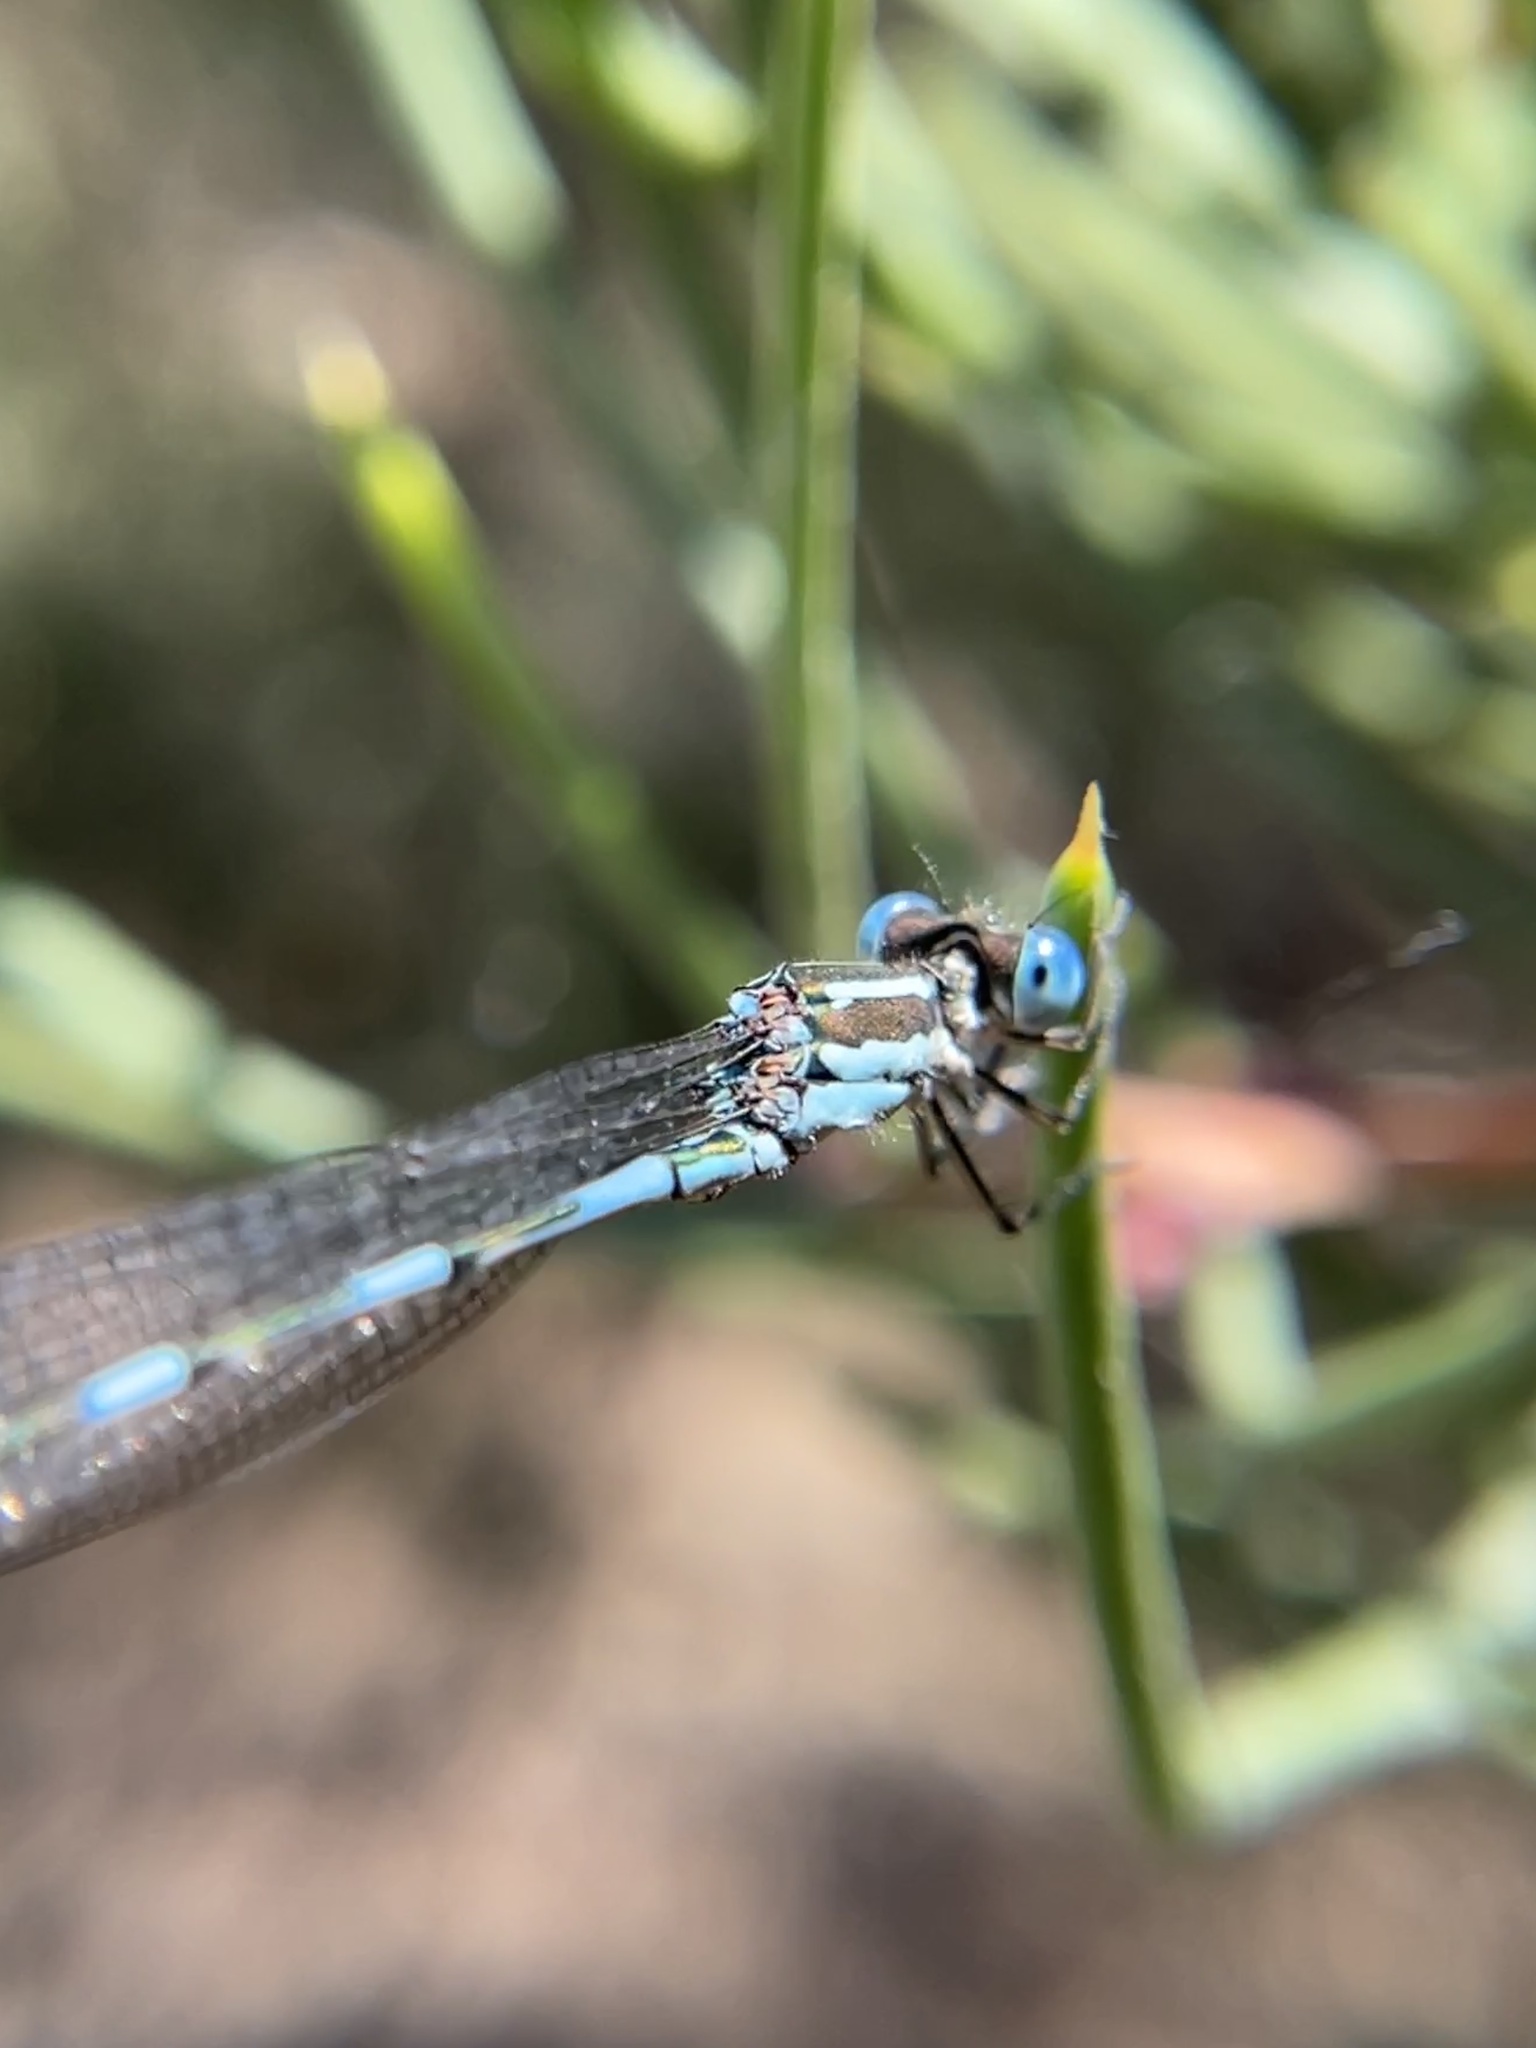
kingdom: Animalia
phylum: Arthropoda
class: Insecta
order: Odonata
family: Lestidae
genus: Austrolestes
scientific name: Austrolestes leda
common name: Wandering ringtail
